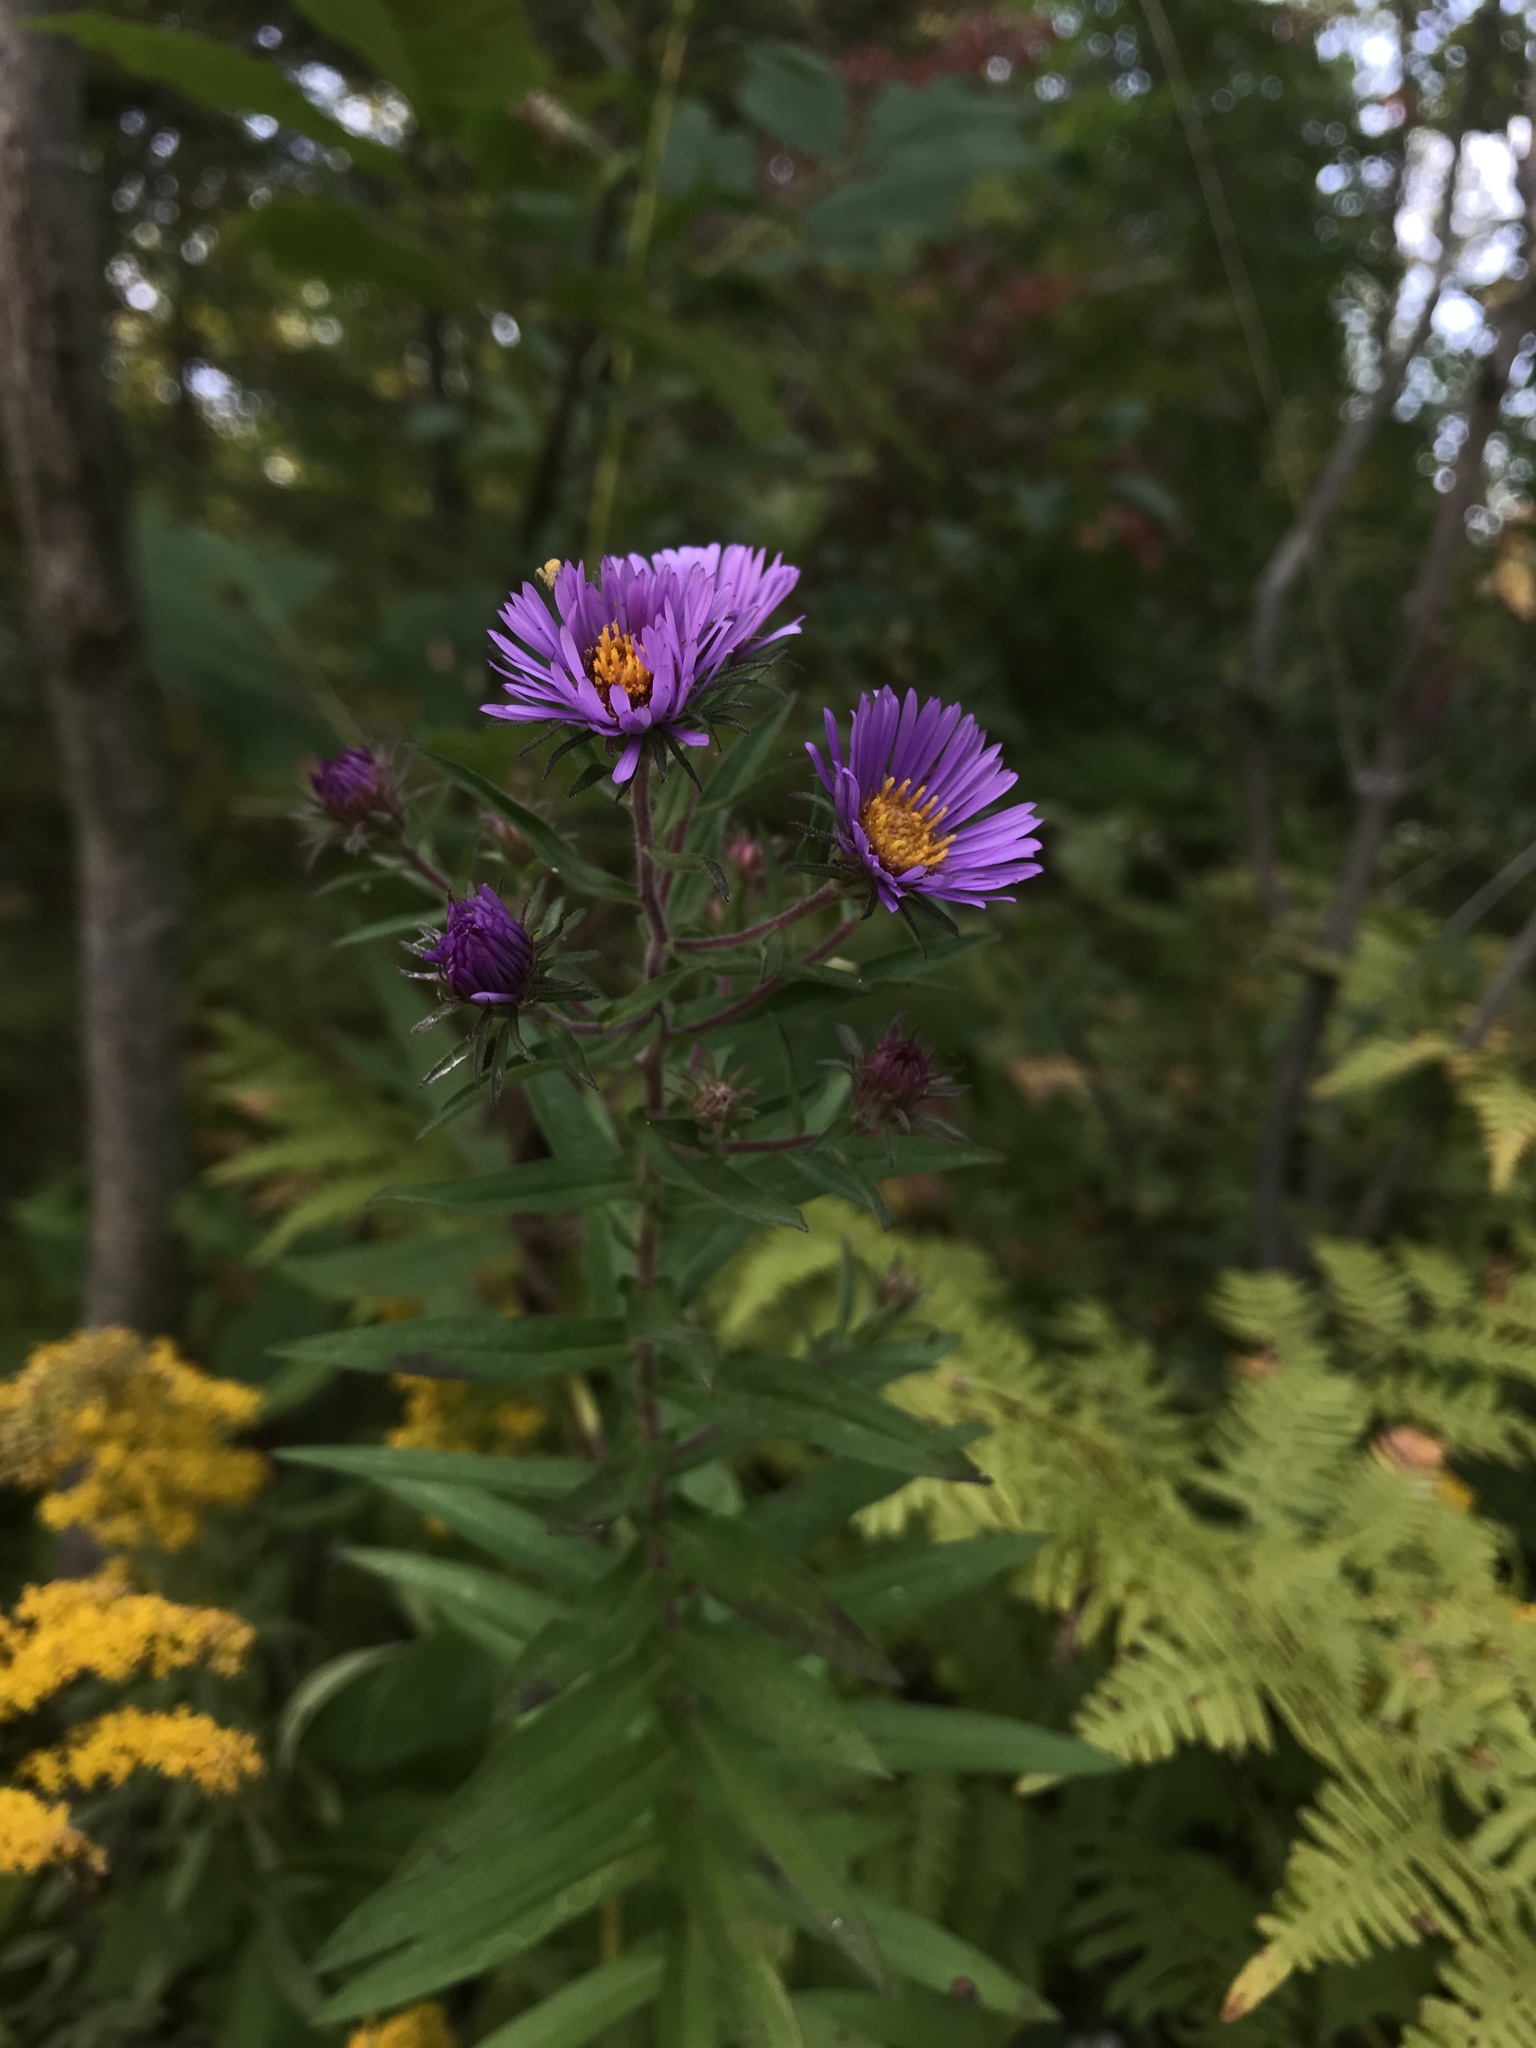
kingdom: Plantae
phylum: Tracheophyta
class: Magnoliopsida
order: Asterales
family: Asteraceae
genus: Symphyotrichum
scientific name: Symphyotrichum novae-angliae
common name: Michaelmas daisy
